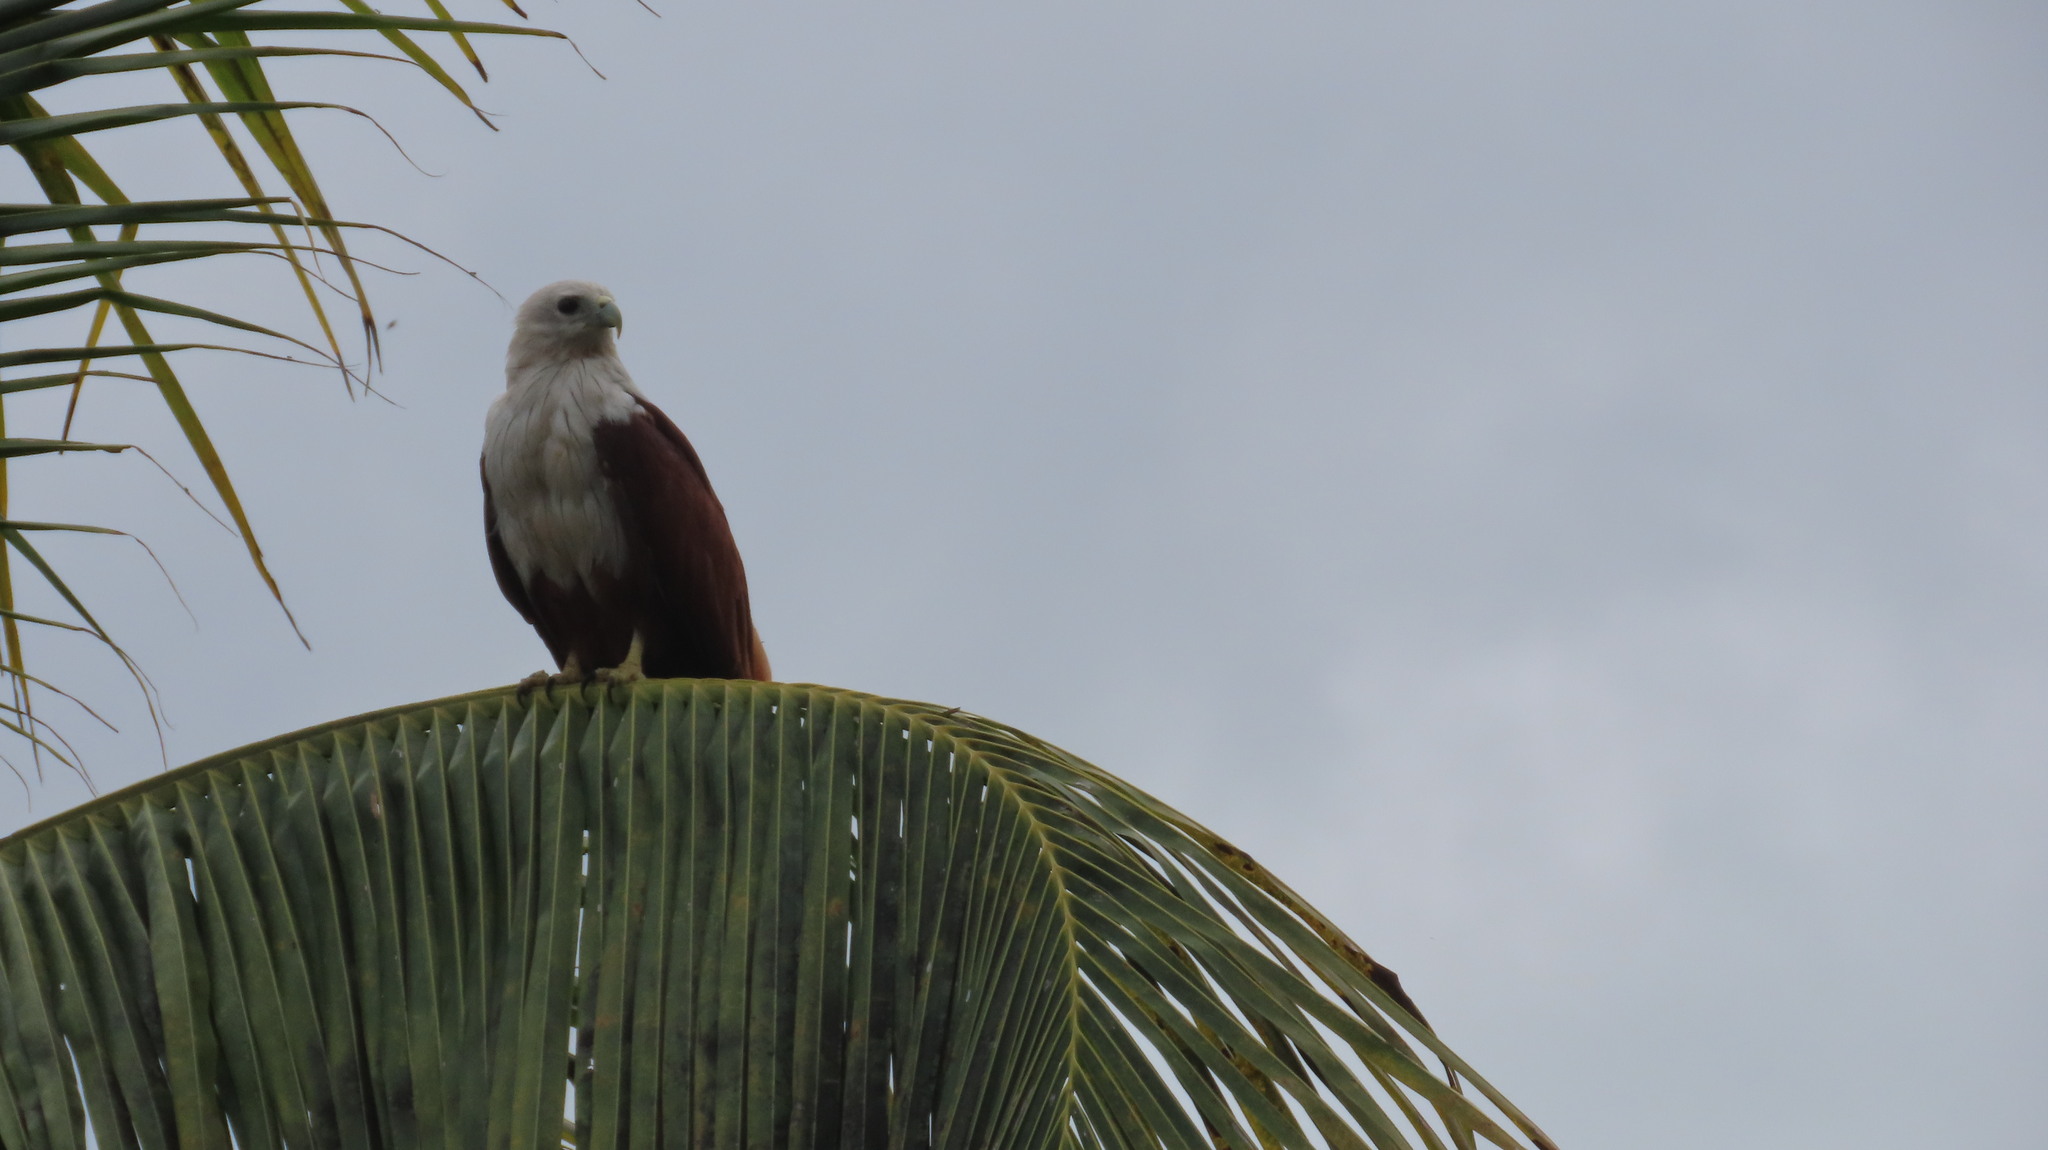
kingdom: Animalia
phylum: Chordata
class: Aves
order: Accipitriformes
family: Accipitridae
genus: Haliastur
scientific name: Haliastur indus
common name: Brahminy kite
